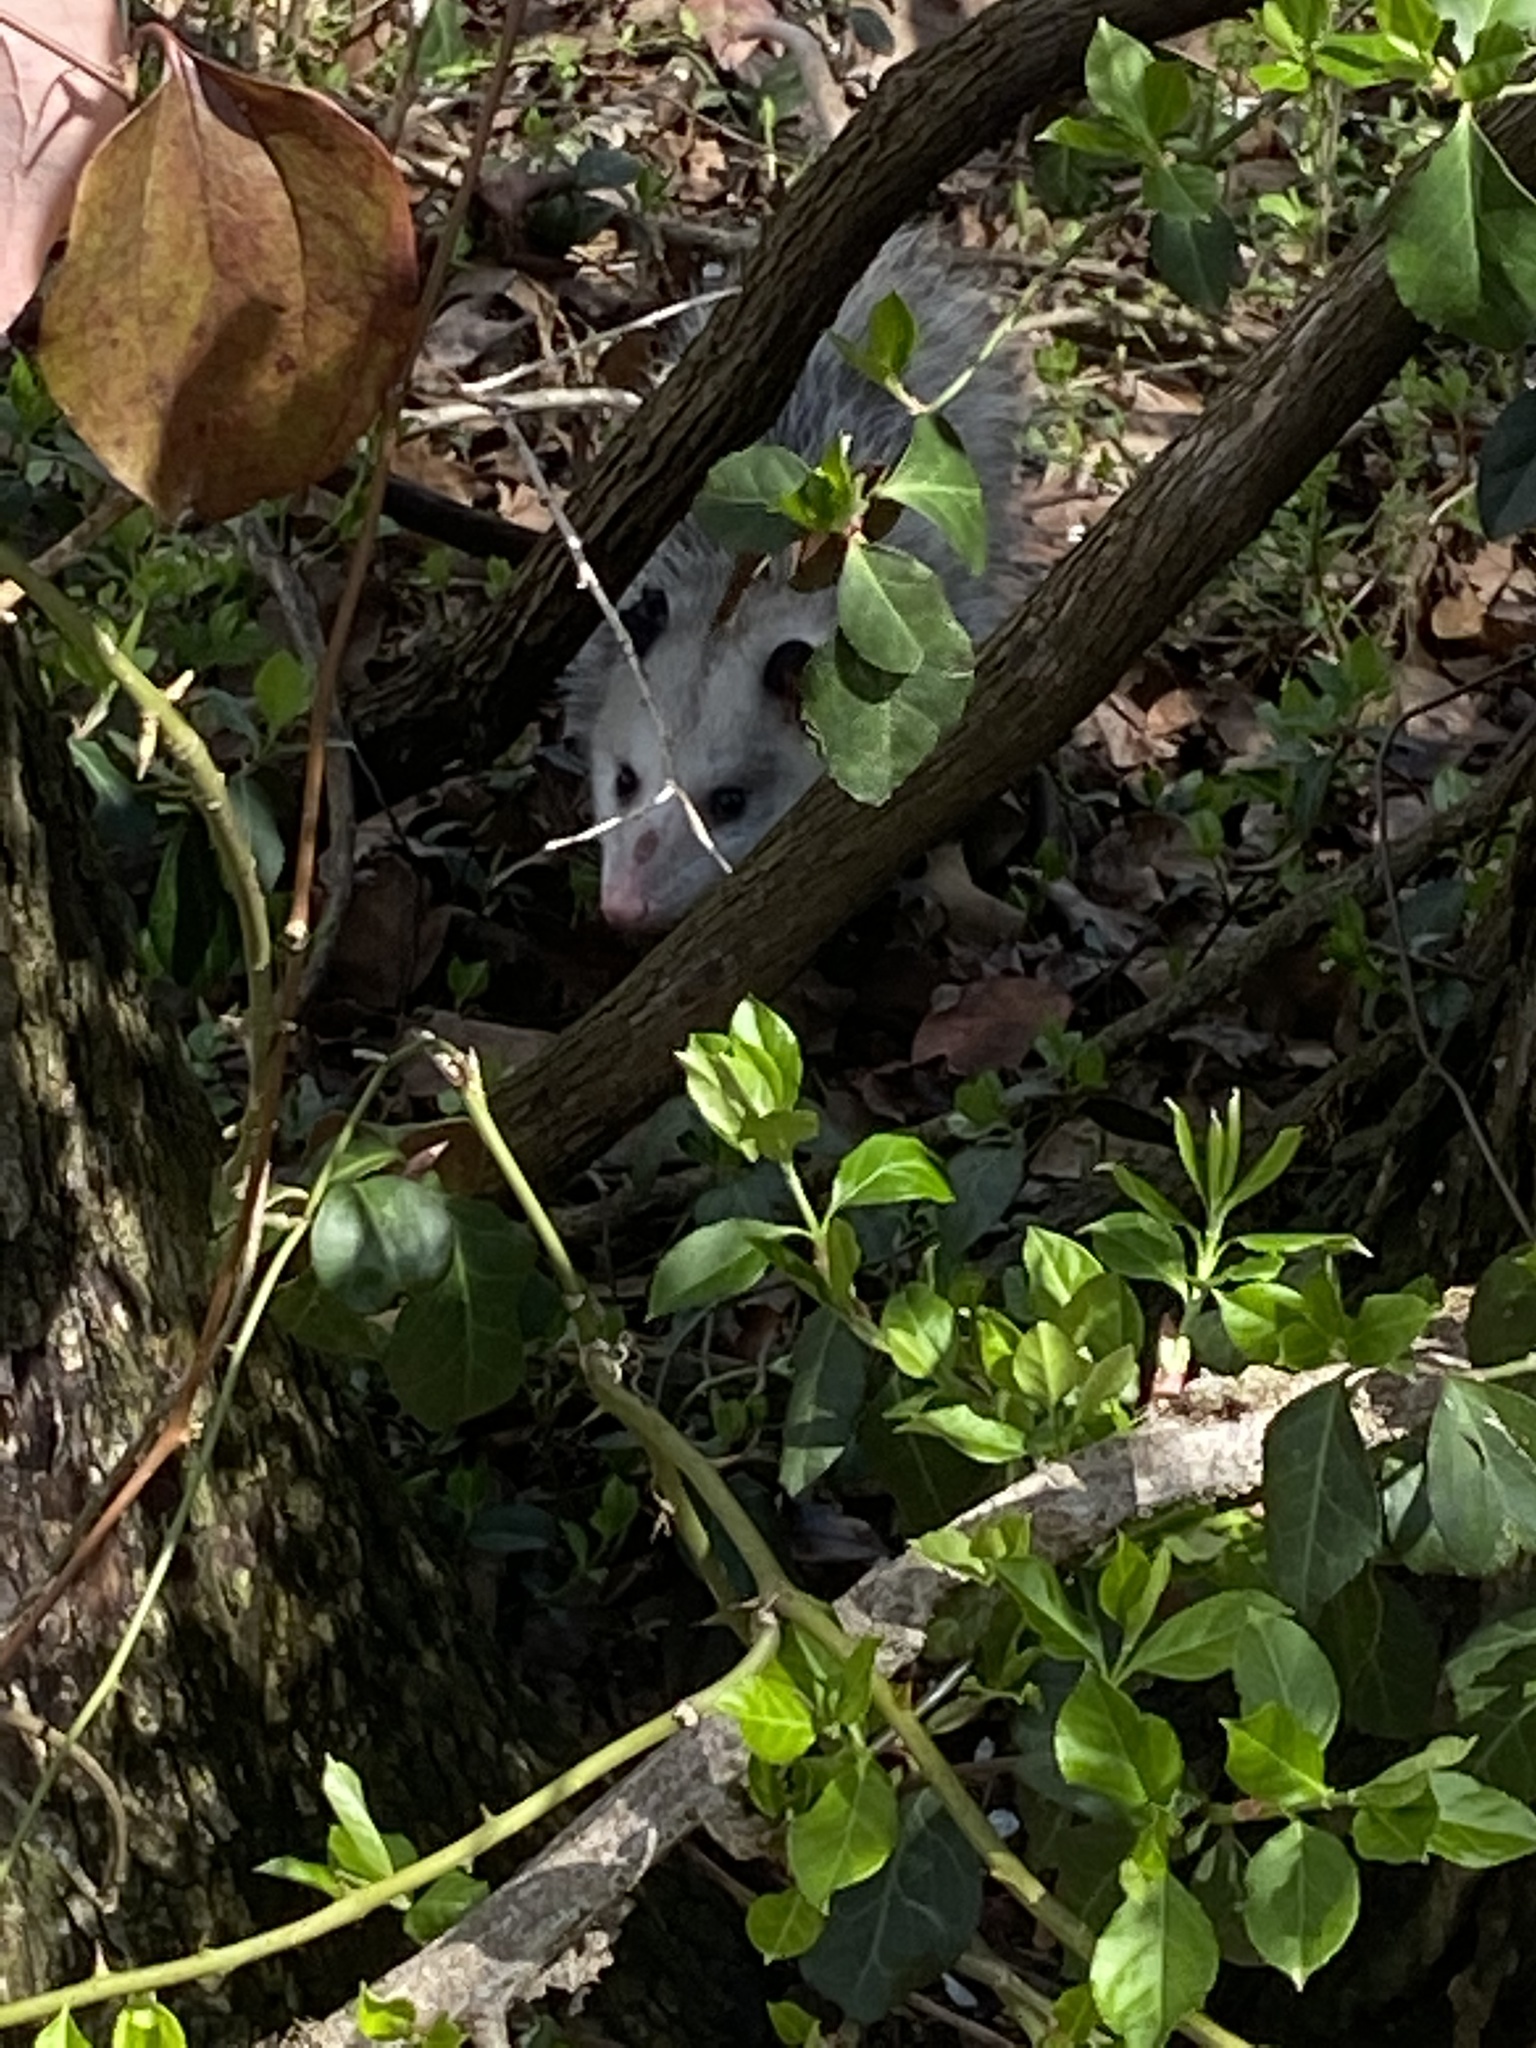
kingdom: Animalia
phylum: Chordata
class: Mammalia
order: Didelphimorphia
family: Didelphidae
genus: Didelphis
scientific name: Didelphis virginiana
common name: Virginia opossum
